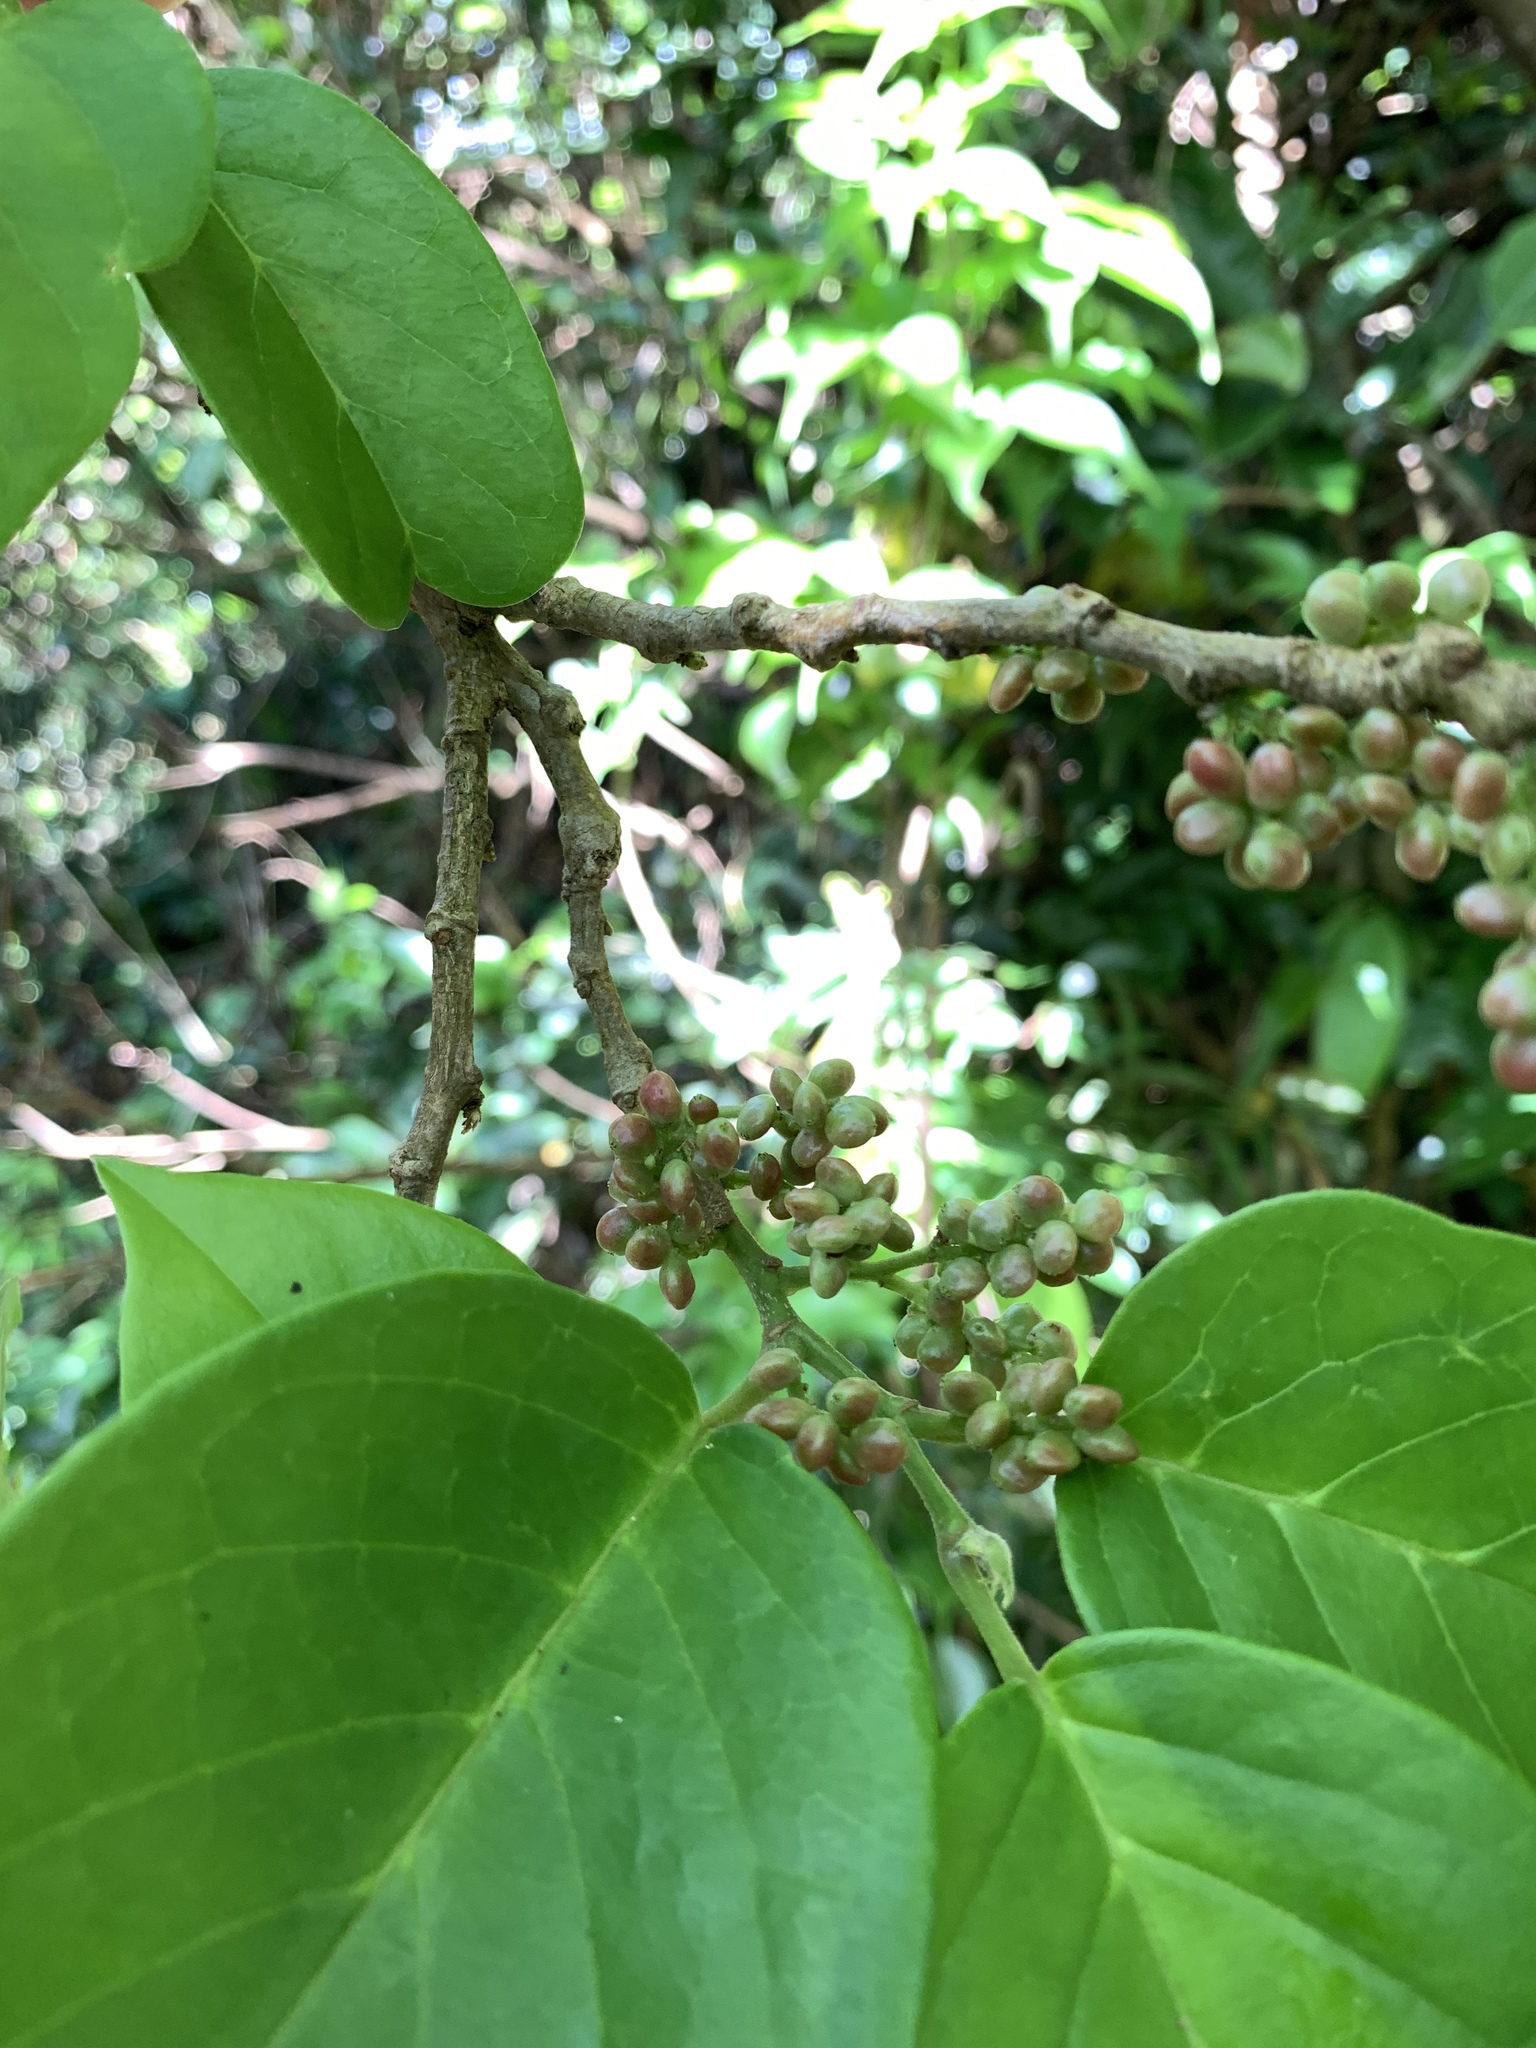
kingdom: Plantae
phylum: Tracheophyta
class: Magnoliopsida
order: Malpighiales
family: Phyllanthaceae
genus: Antidesma
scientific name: Antidesma pleuricum
